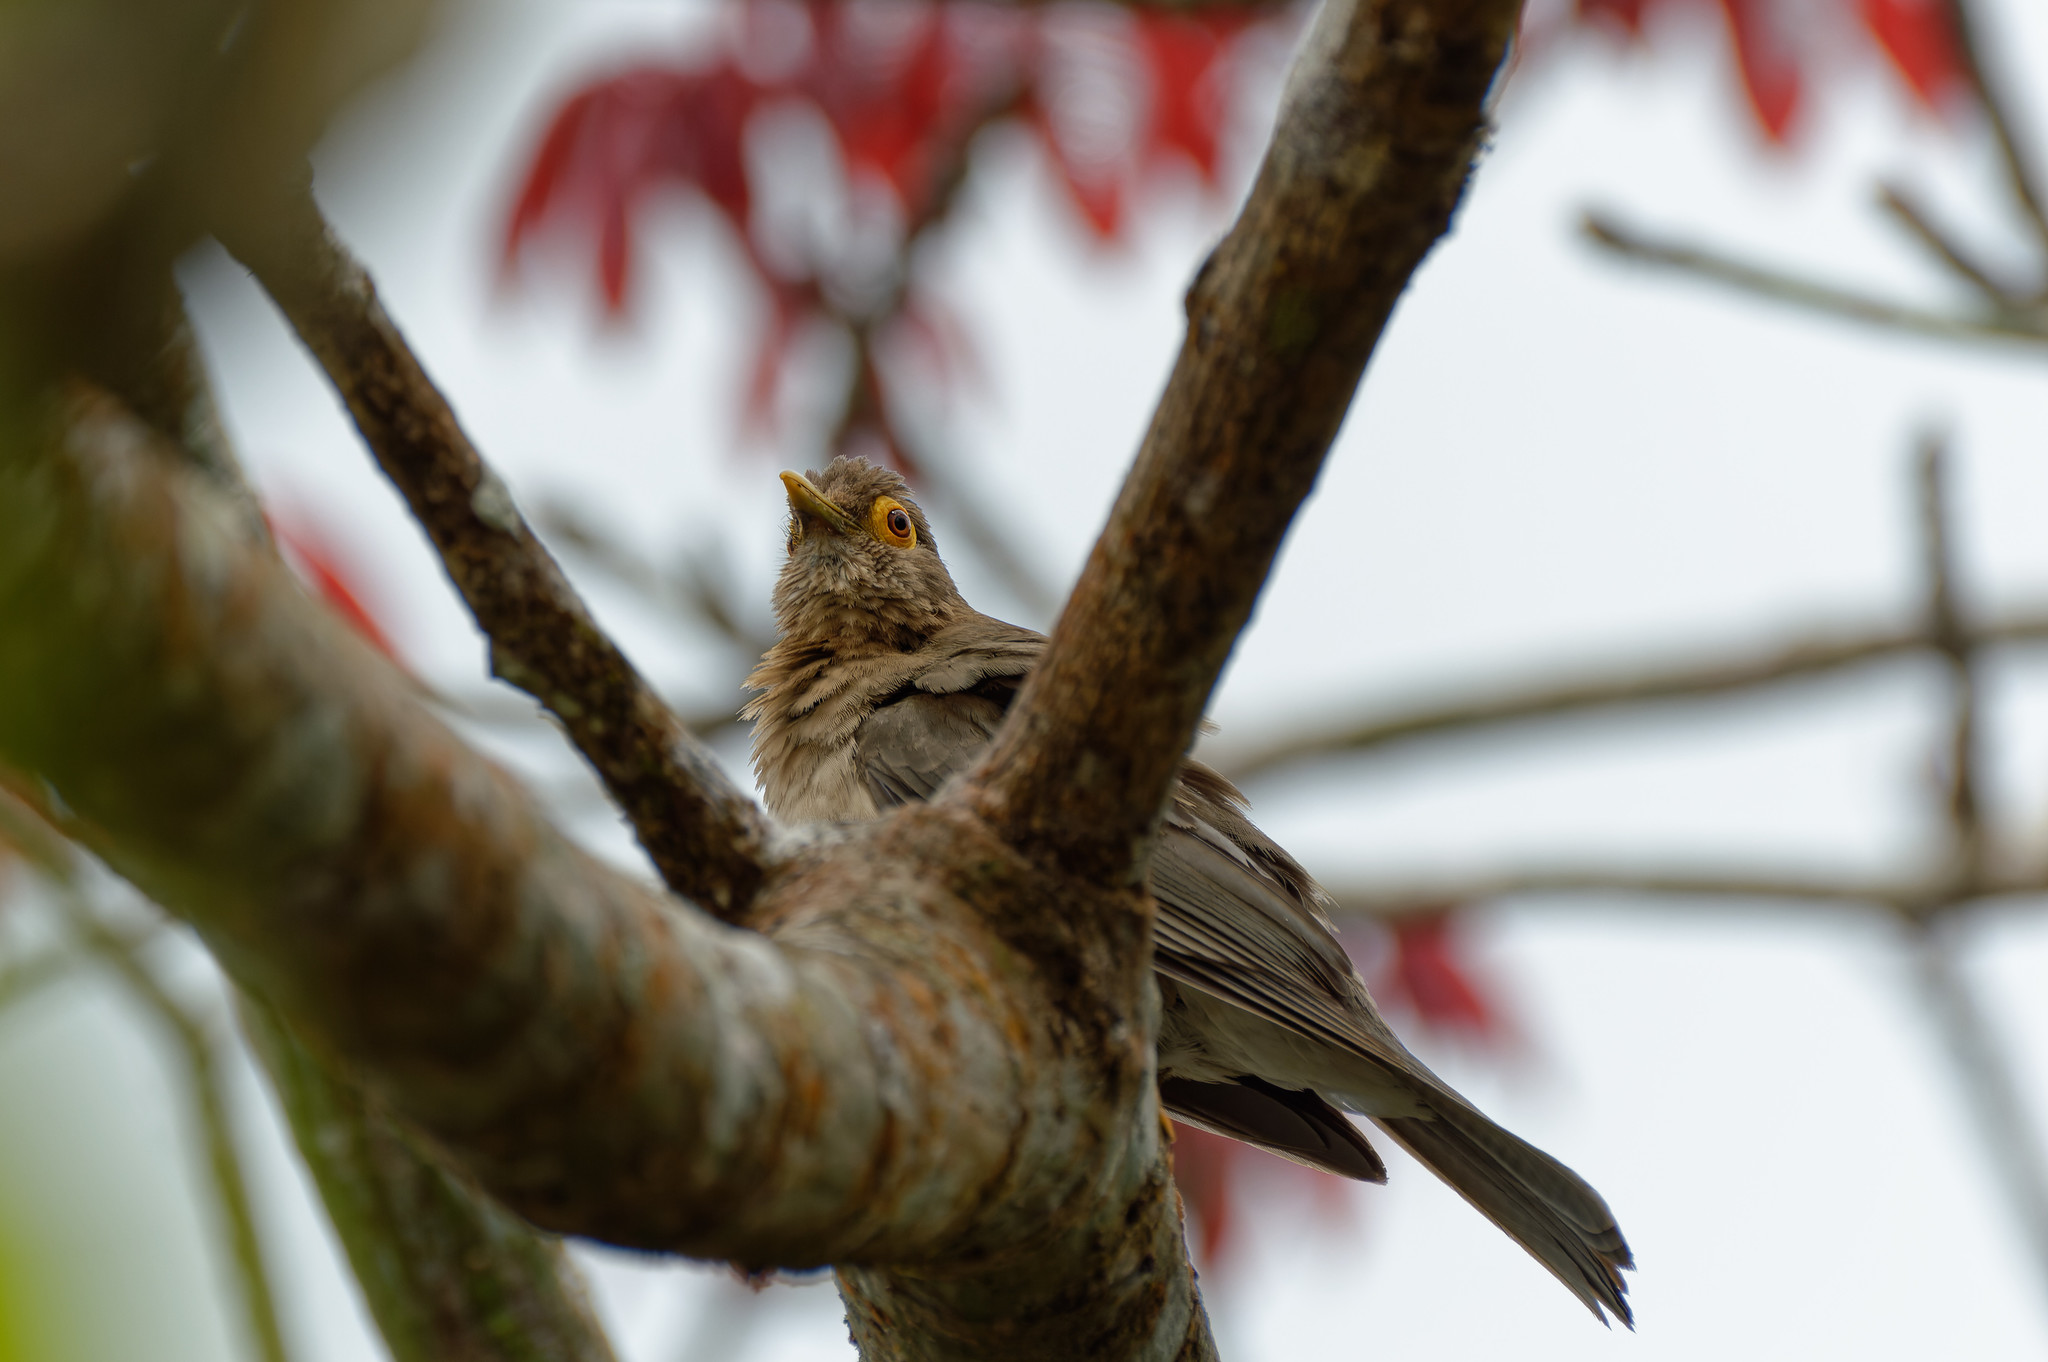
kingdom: Animalia
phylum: Chordata
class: Aves
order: Passeriformes
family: Turdidae
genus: Turdus
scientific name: Turdus nudigenis
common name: Spectacled thrush
